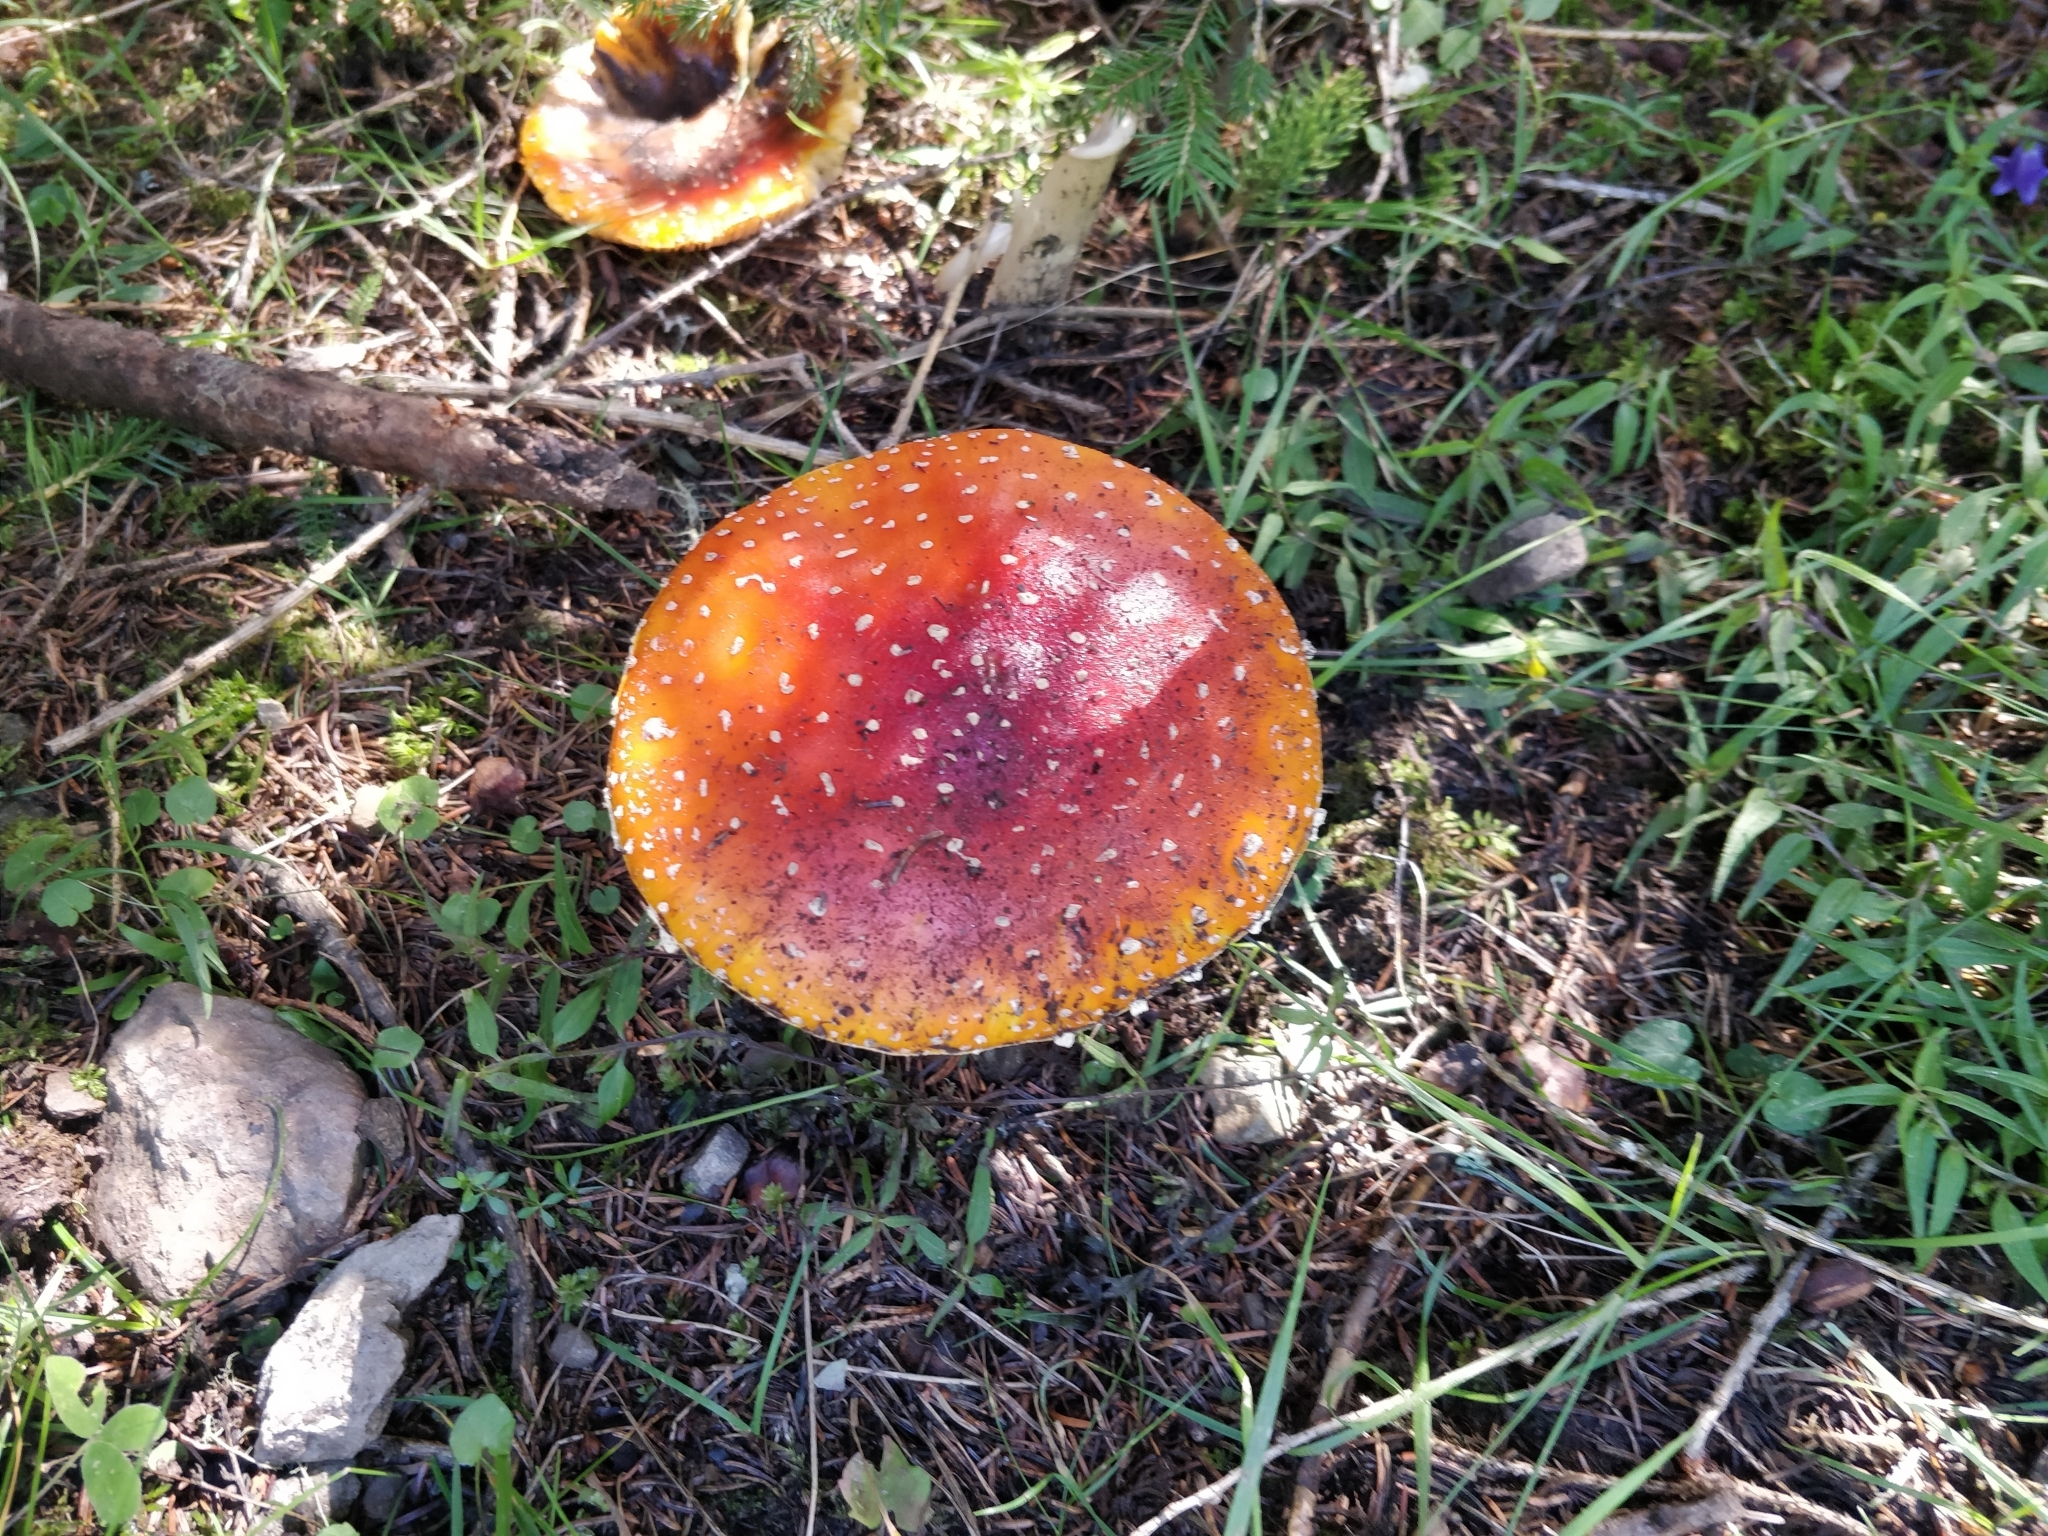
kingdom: Fungi
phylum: Basidiomycota
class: Agaricomycetes
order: Agaricales
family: Amanitaceae
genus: Amanita
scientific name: Amanita muscaria
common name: Fly agaric
